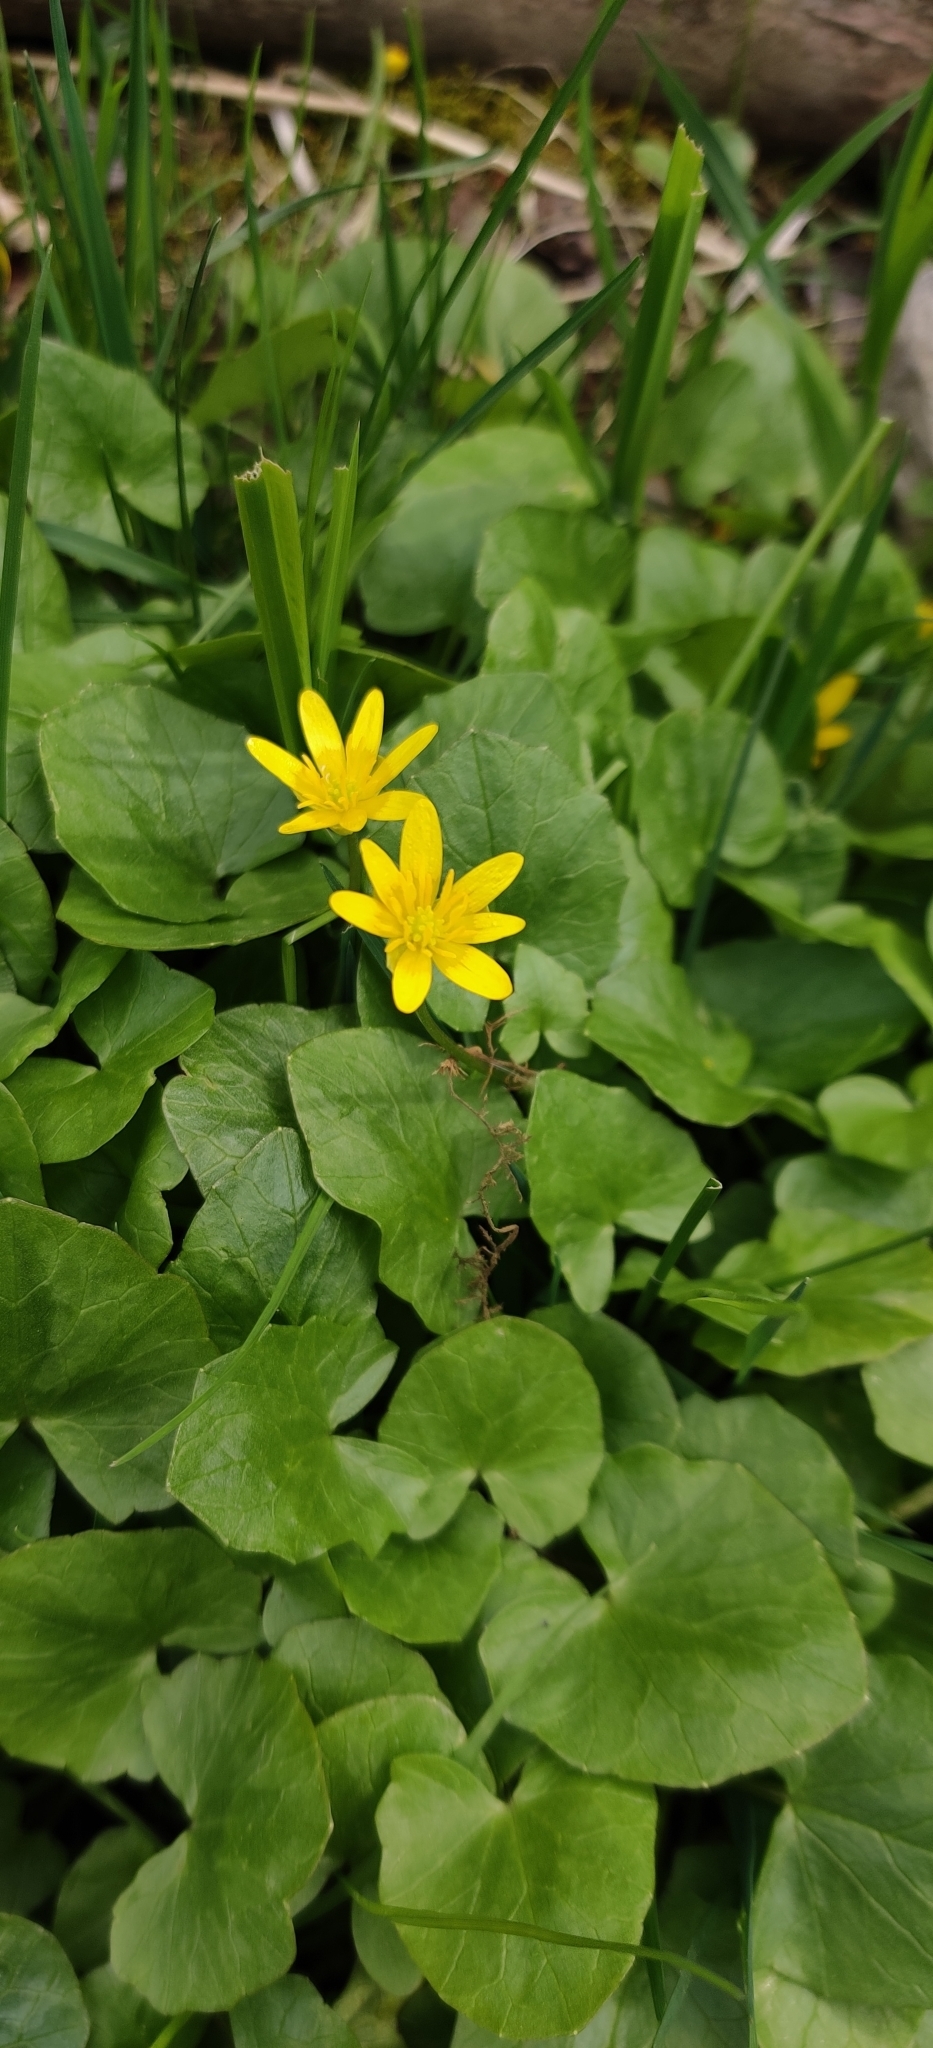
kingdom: Plantae
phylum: Tracheophyta
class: Magnoliopsida
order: Ranunculales
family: Ranunculaceae
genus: Ficaria
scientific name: Ficaria verna
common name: Lesser celandine
